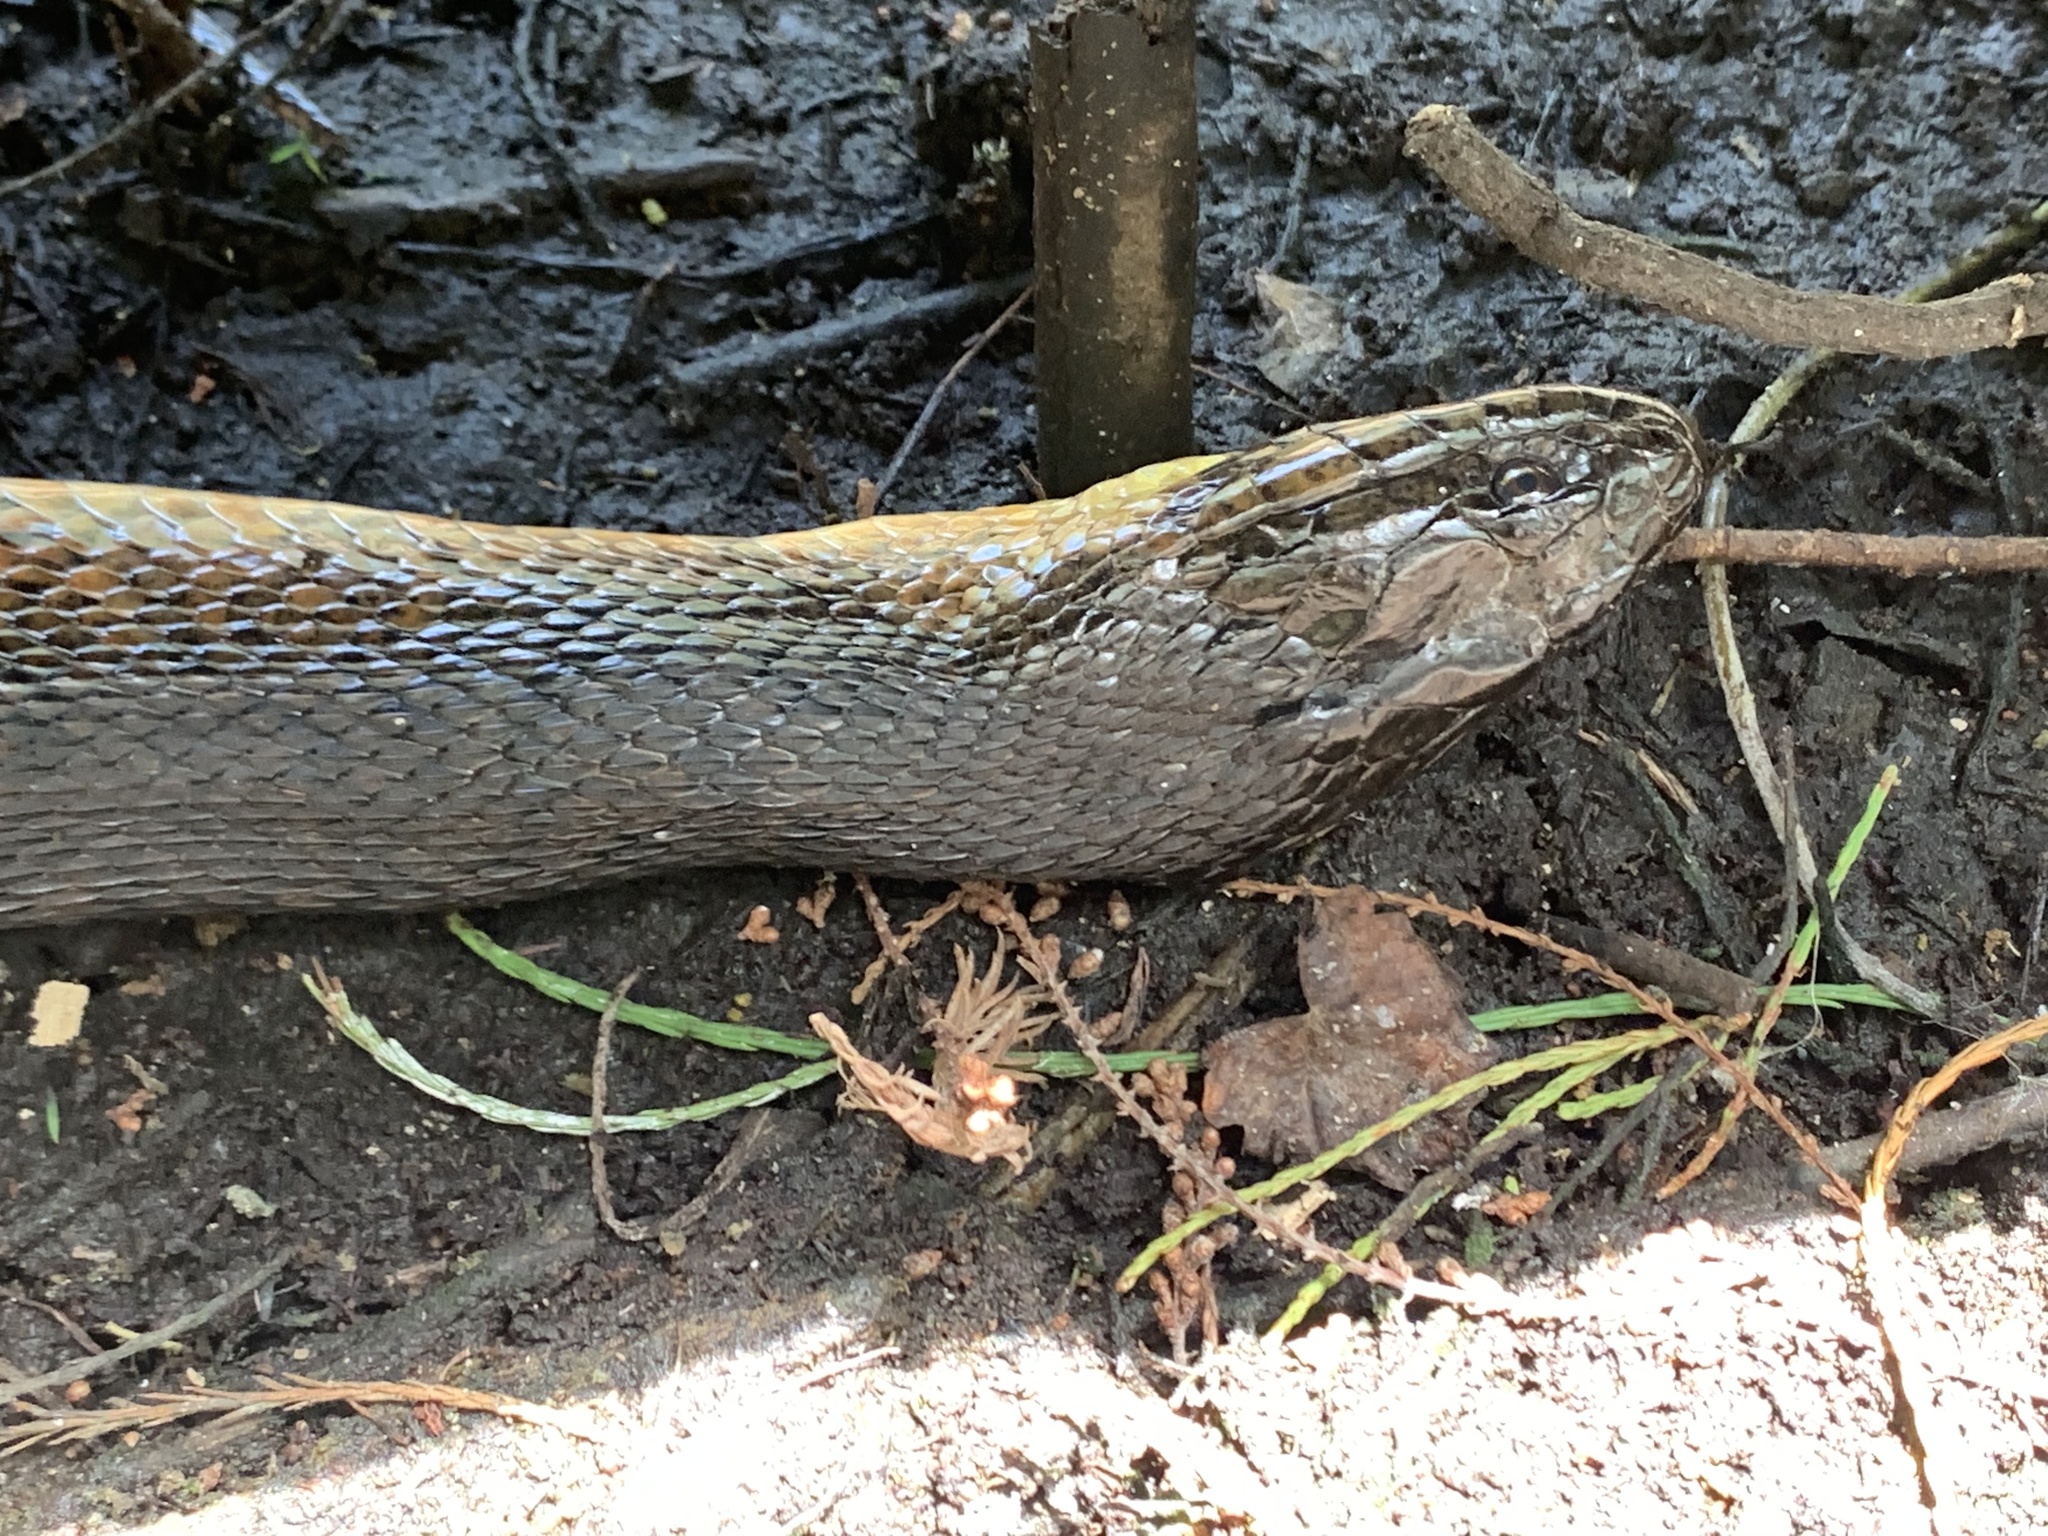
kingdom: Animalia
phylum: Chordata
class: Squamata
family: Colubridae
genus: Nerodia
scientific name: Nerodia floridana
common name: Florida green watersnake
